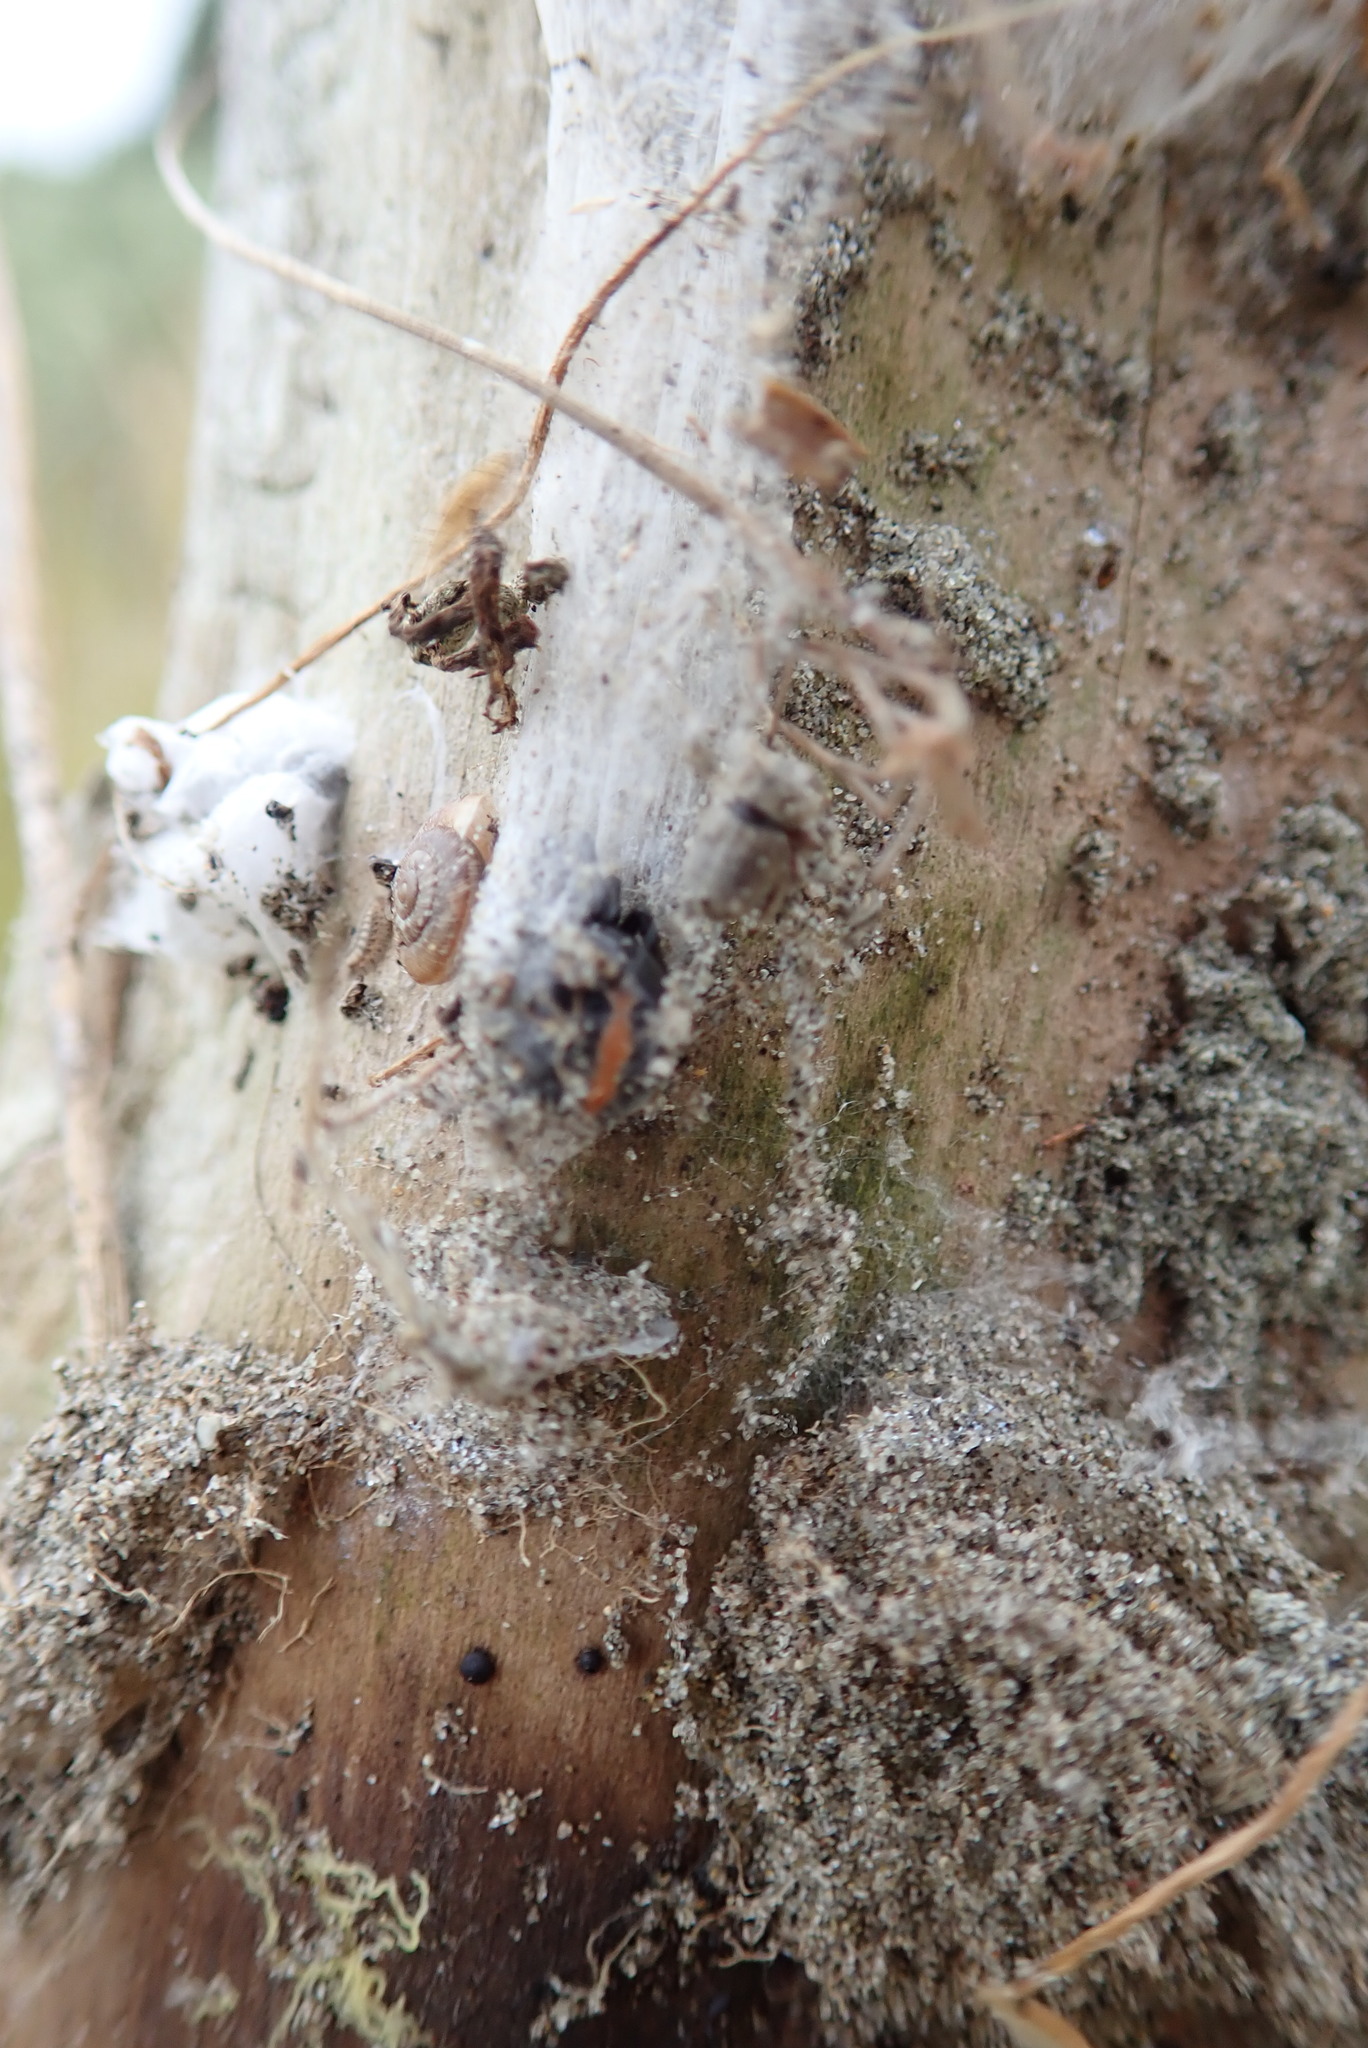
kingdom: Animalia
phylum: Arthropoda
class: Arachnida
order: Araneae
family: Theridiidae
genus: Latrodectus
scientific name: Latrodectus katipo
